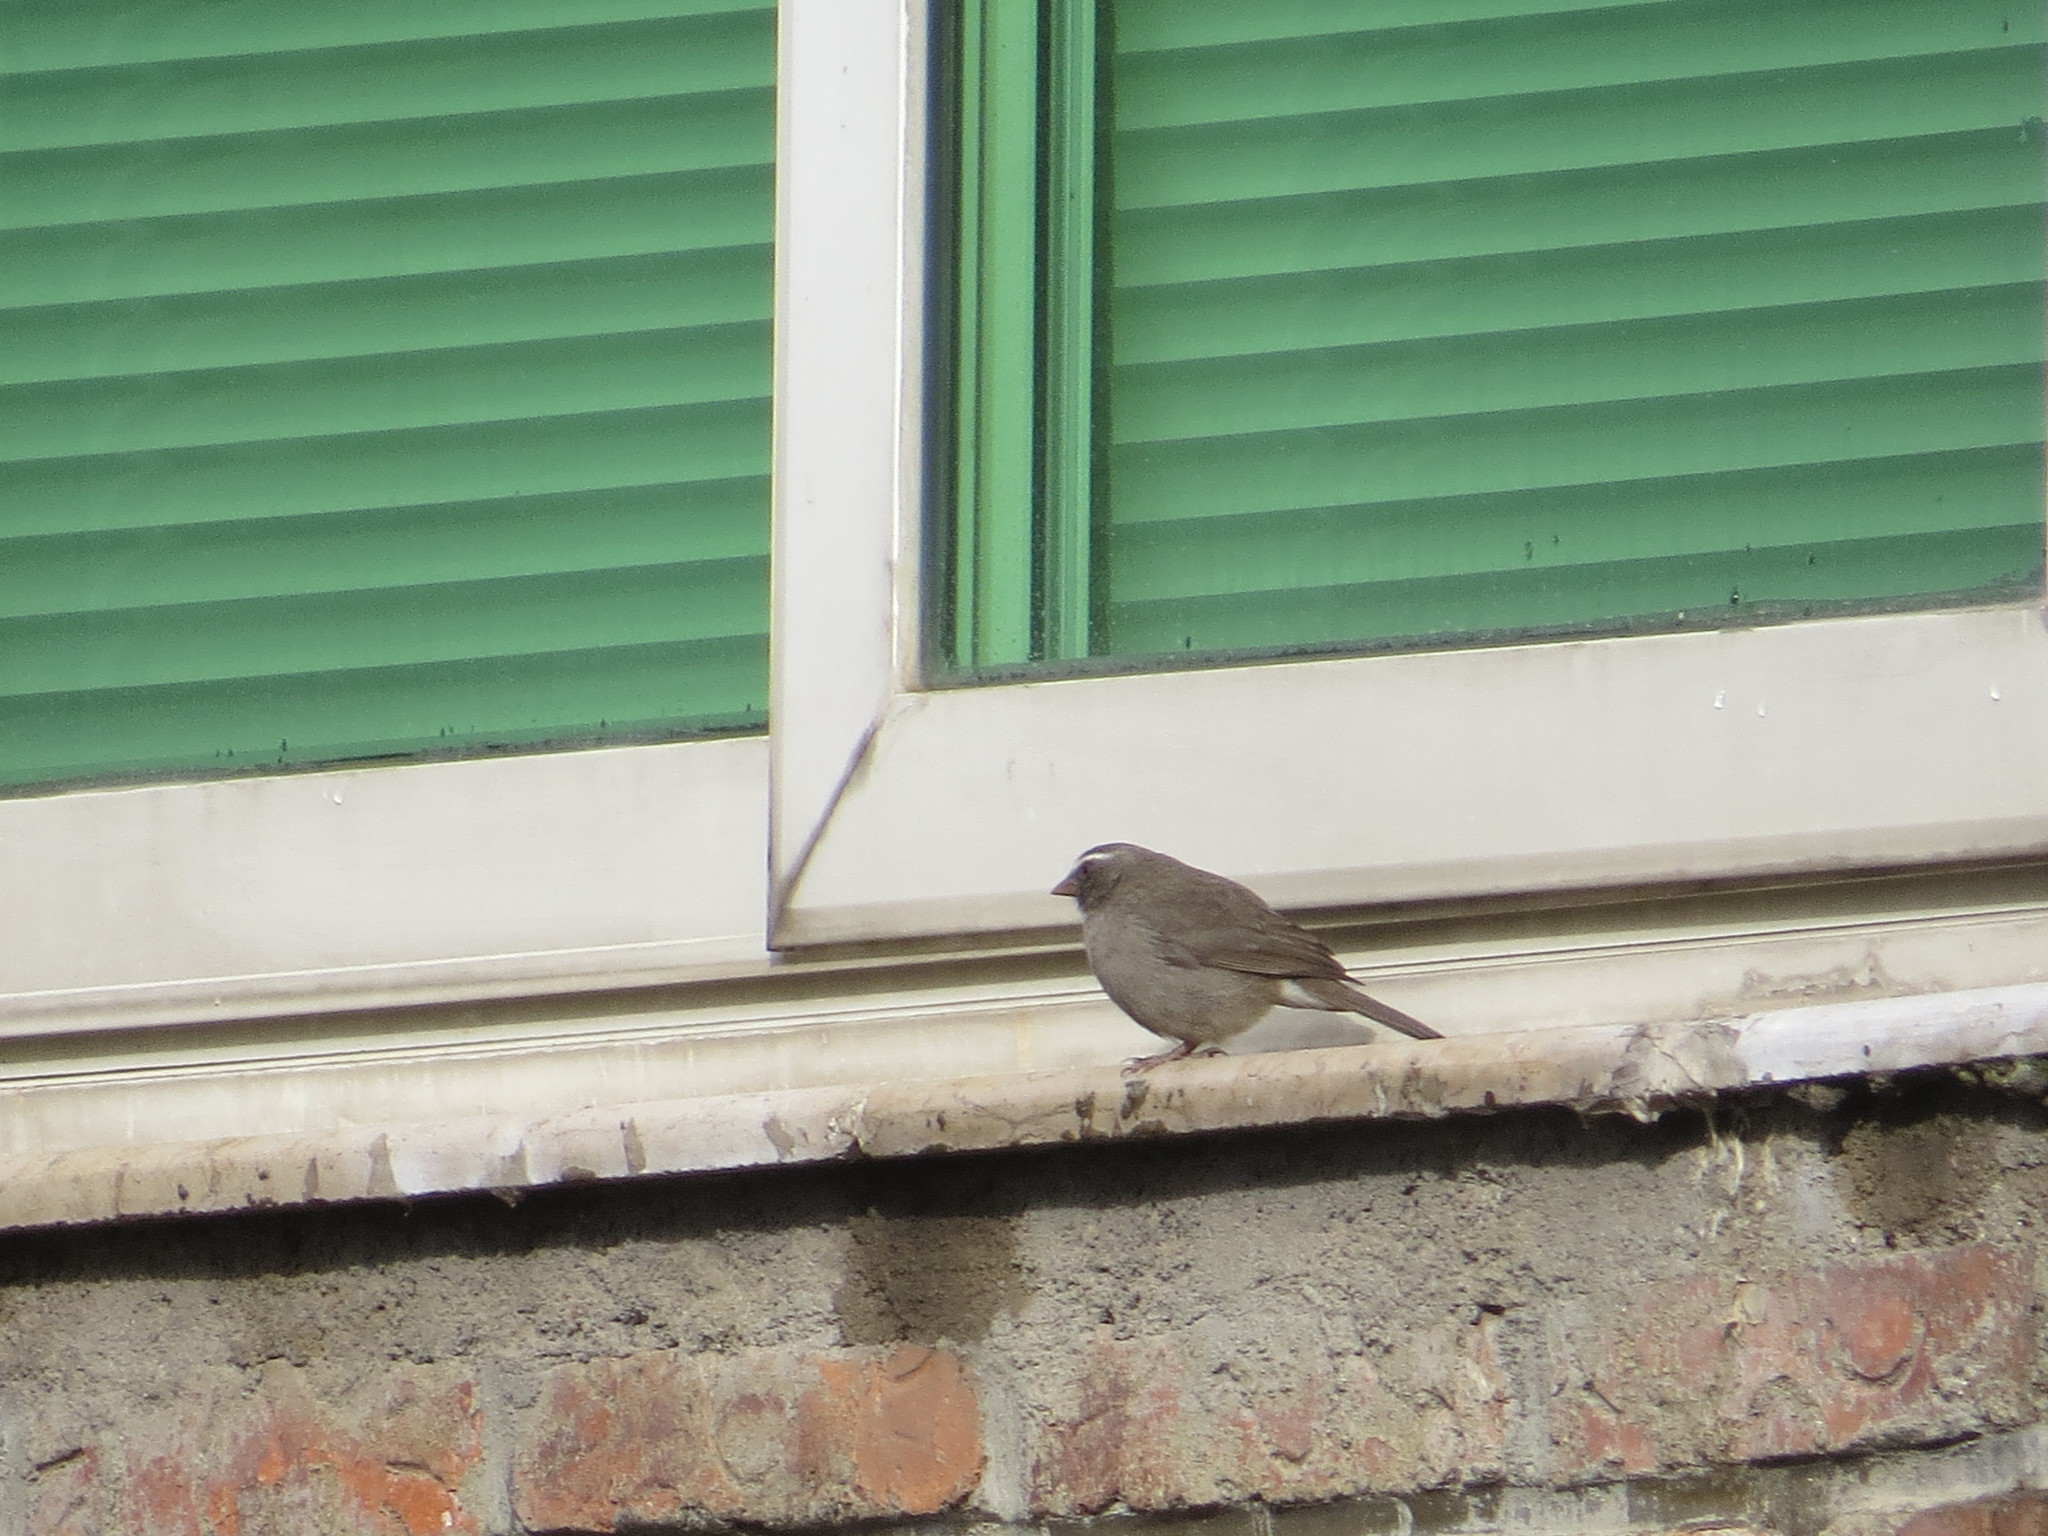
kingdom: Animalia
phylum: Chordata
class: Aves
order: Passeriformes
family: Fringillidae
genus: Crithagra
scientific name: Crithagra tristriata
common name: Brown-rumped seedeater
